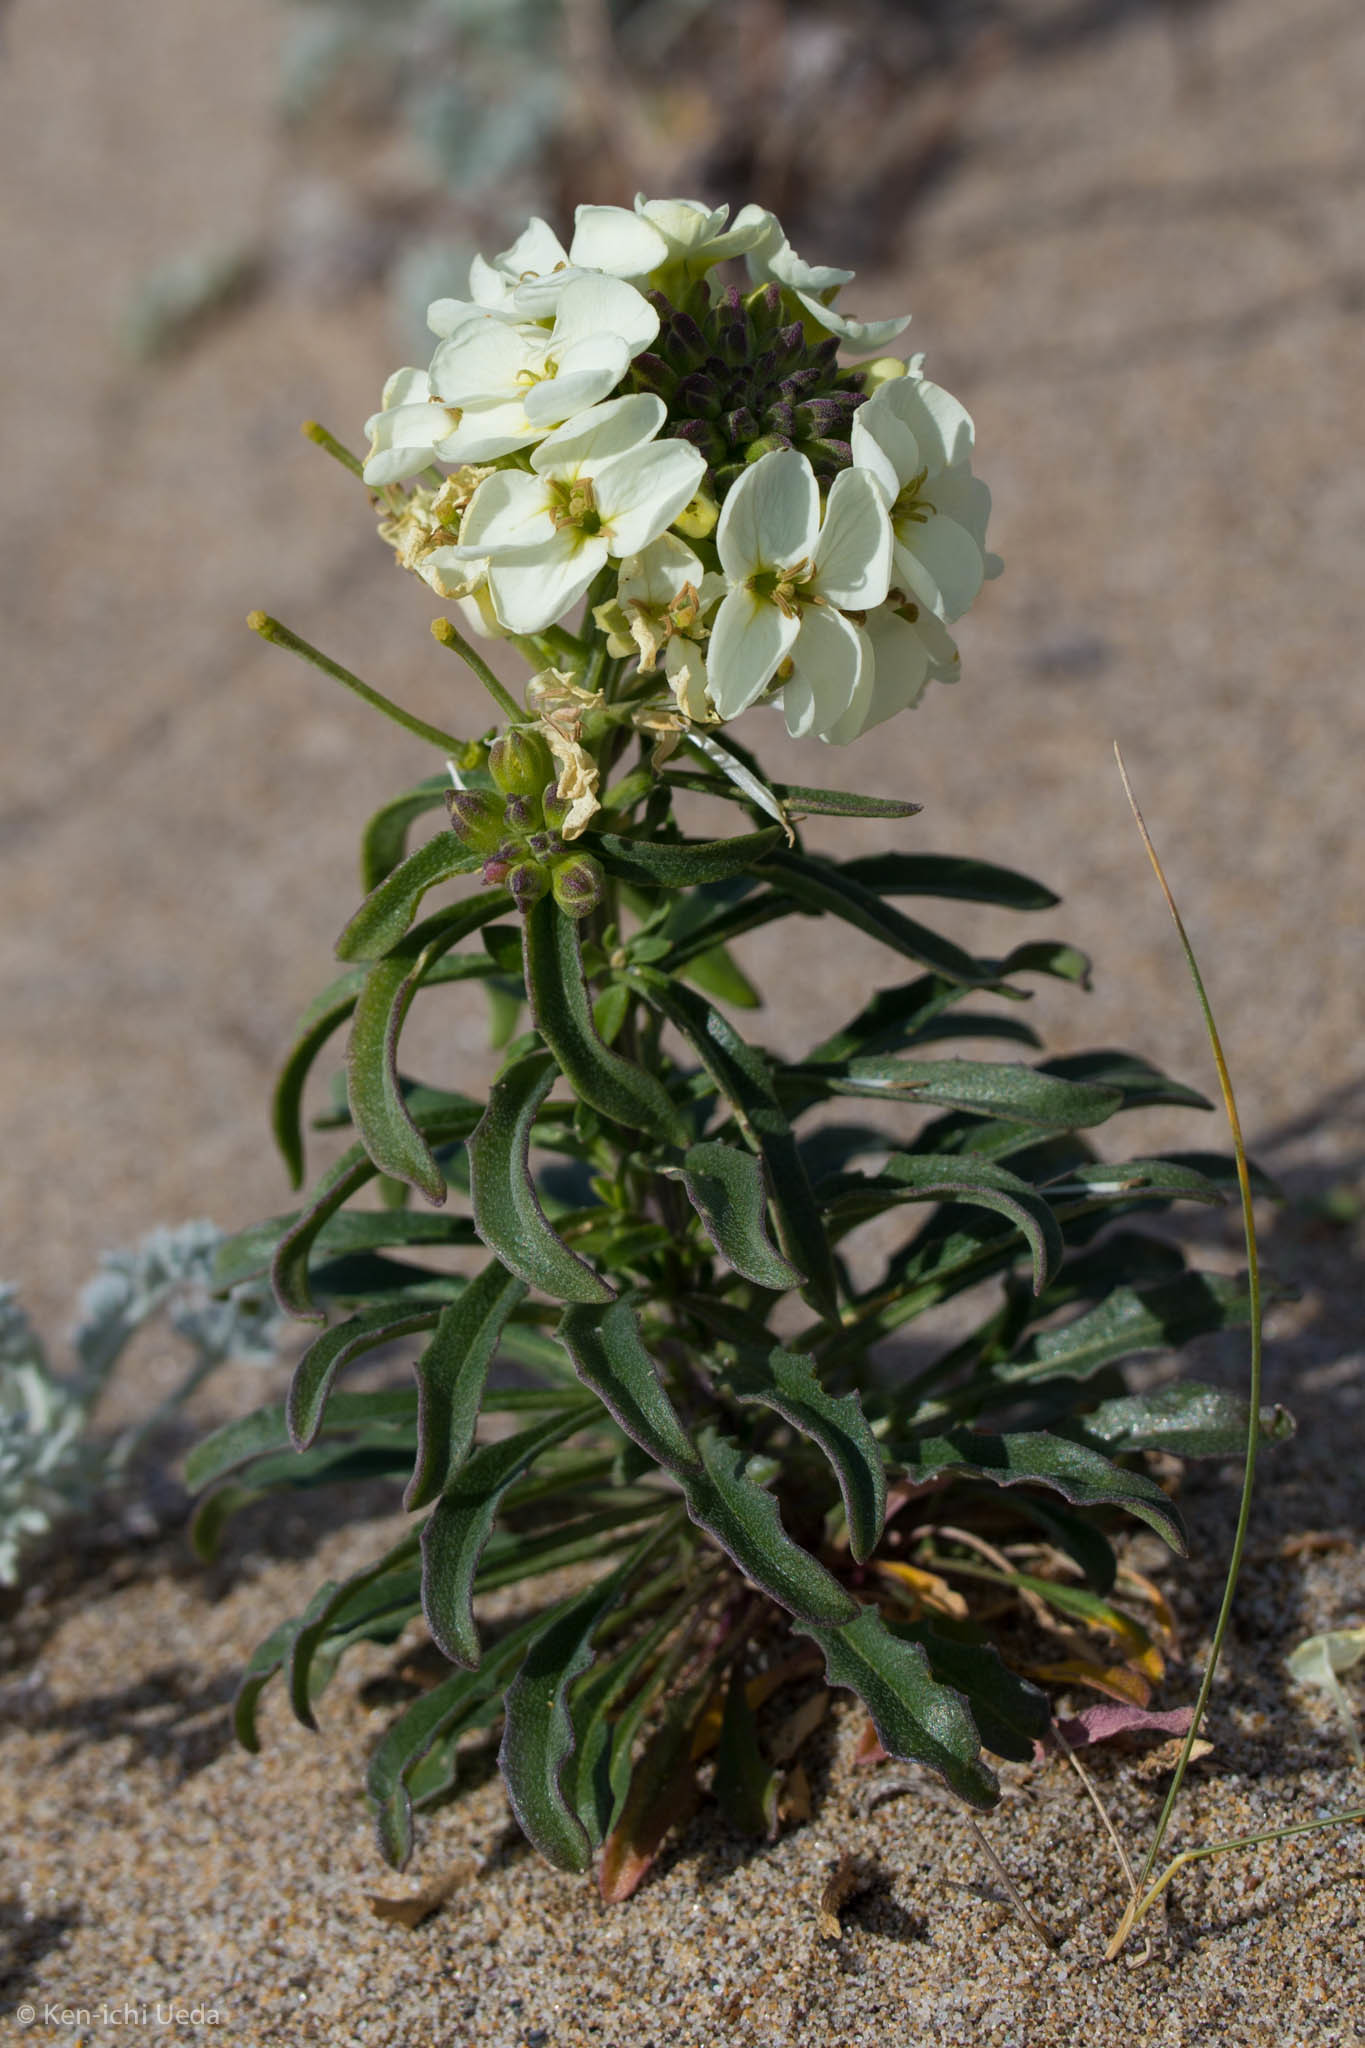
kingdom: Plantae
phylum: Tracheophyta
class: Magnoliopsida
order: Brassicales
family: Brassicaceae
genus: Erysimum
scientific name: Erysimum concinnum
